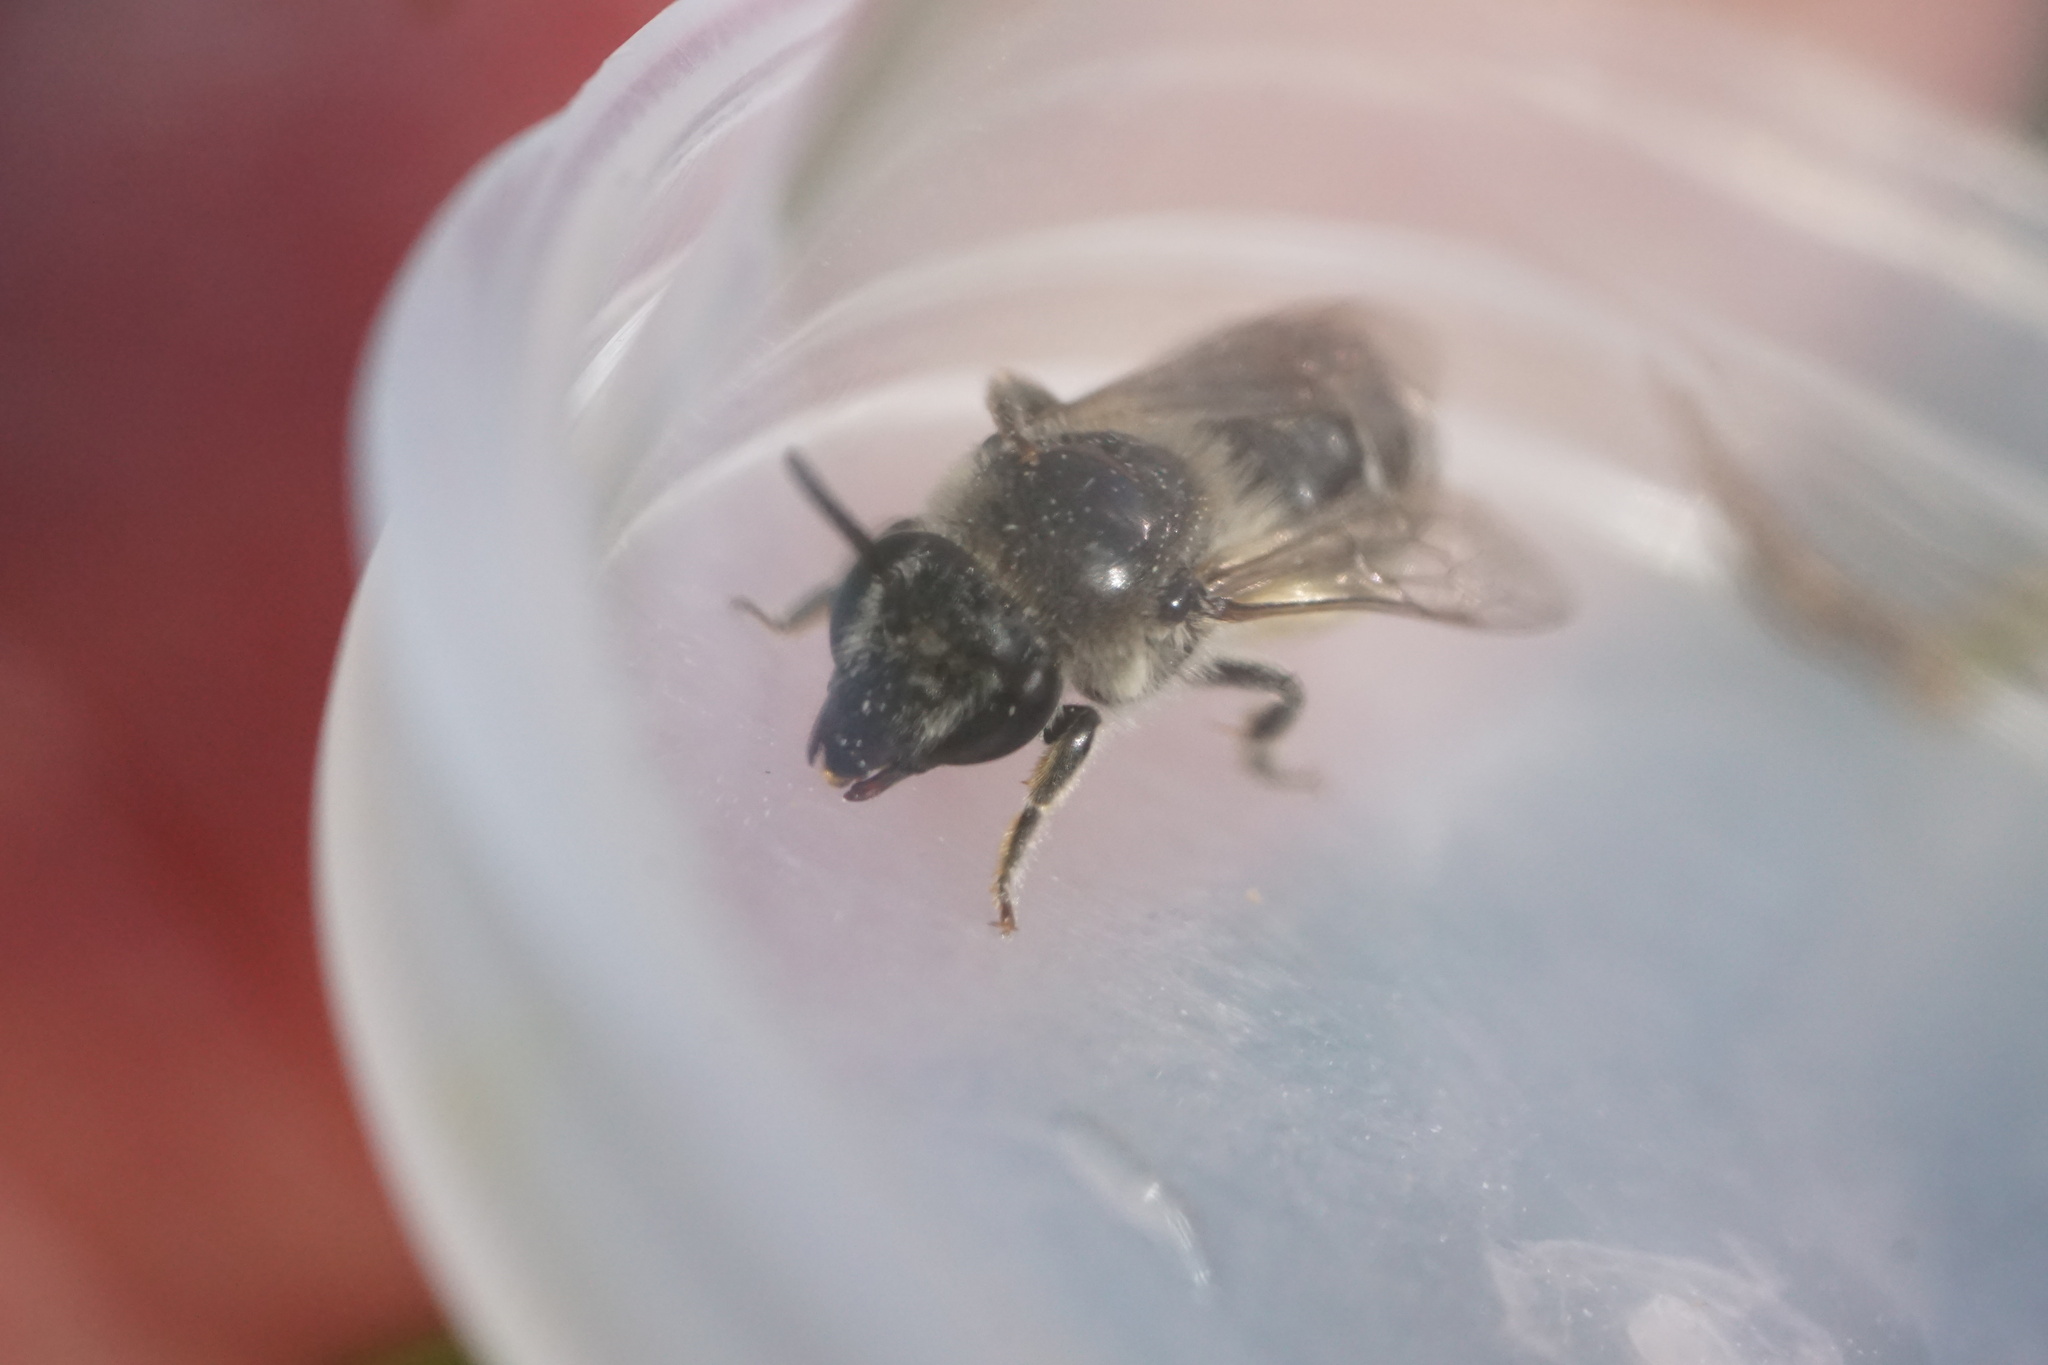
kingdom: Animalia
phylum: Arthropoda
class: Insecta
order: Hymenoptera
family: Colletidae
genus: Colletes
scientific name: Colletes productus
